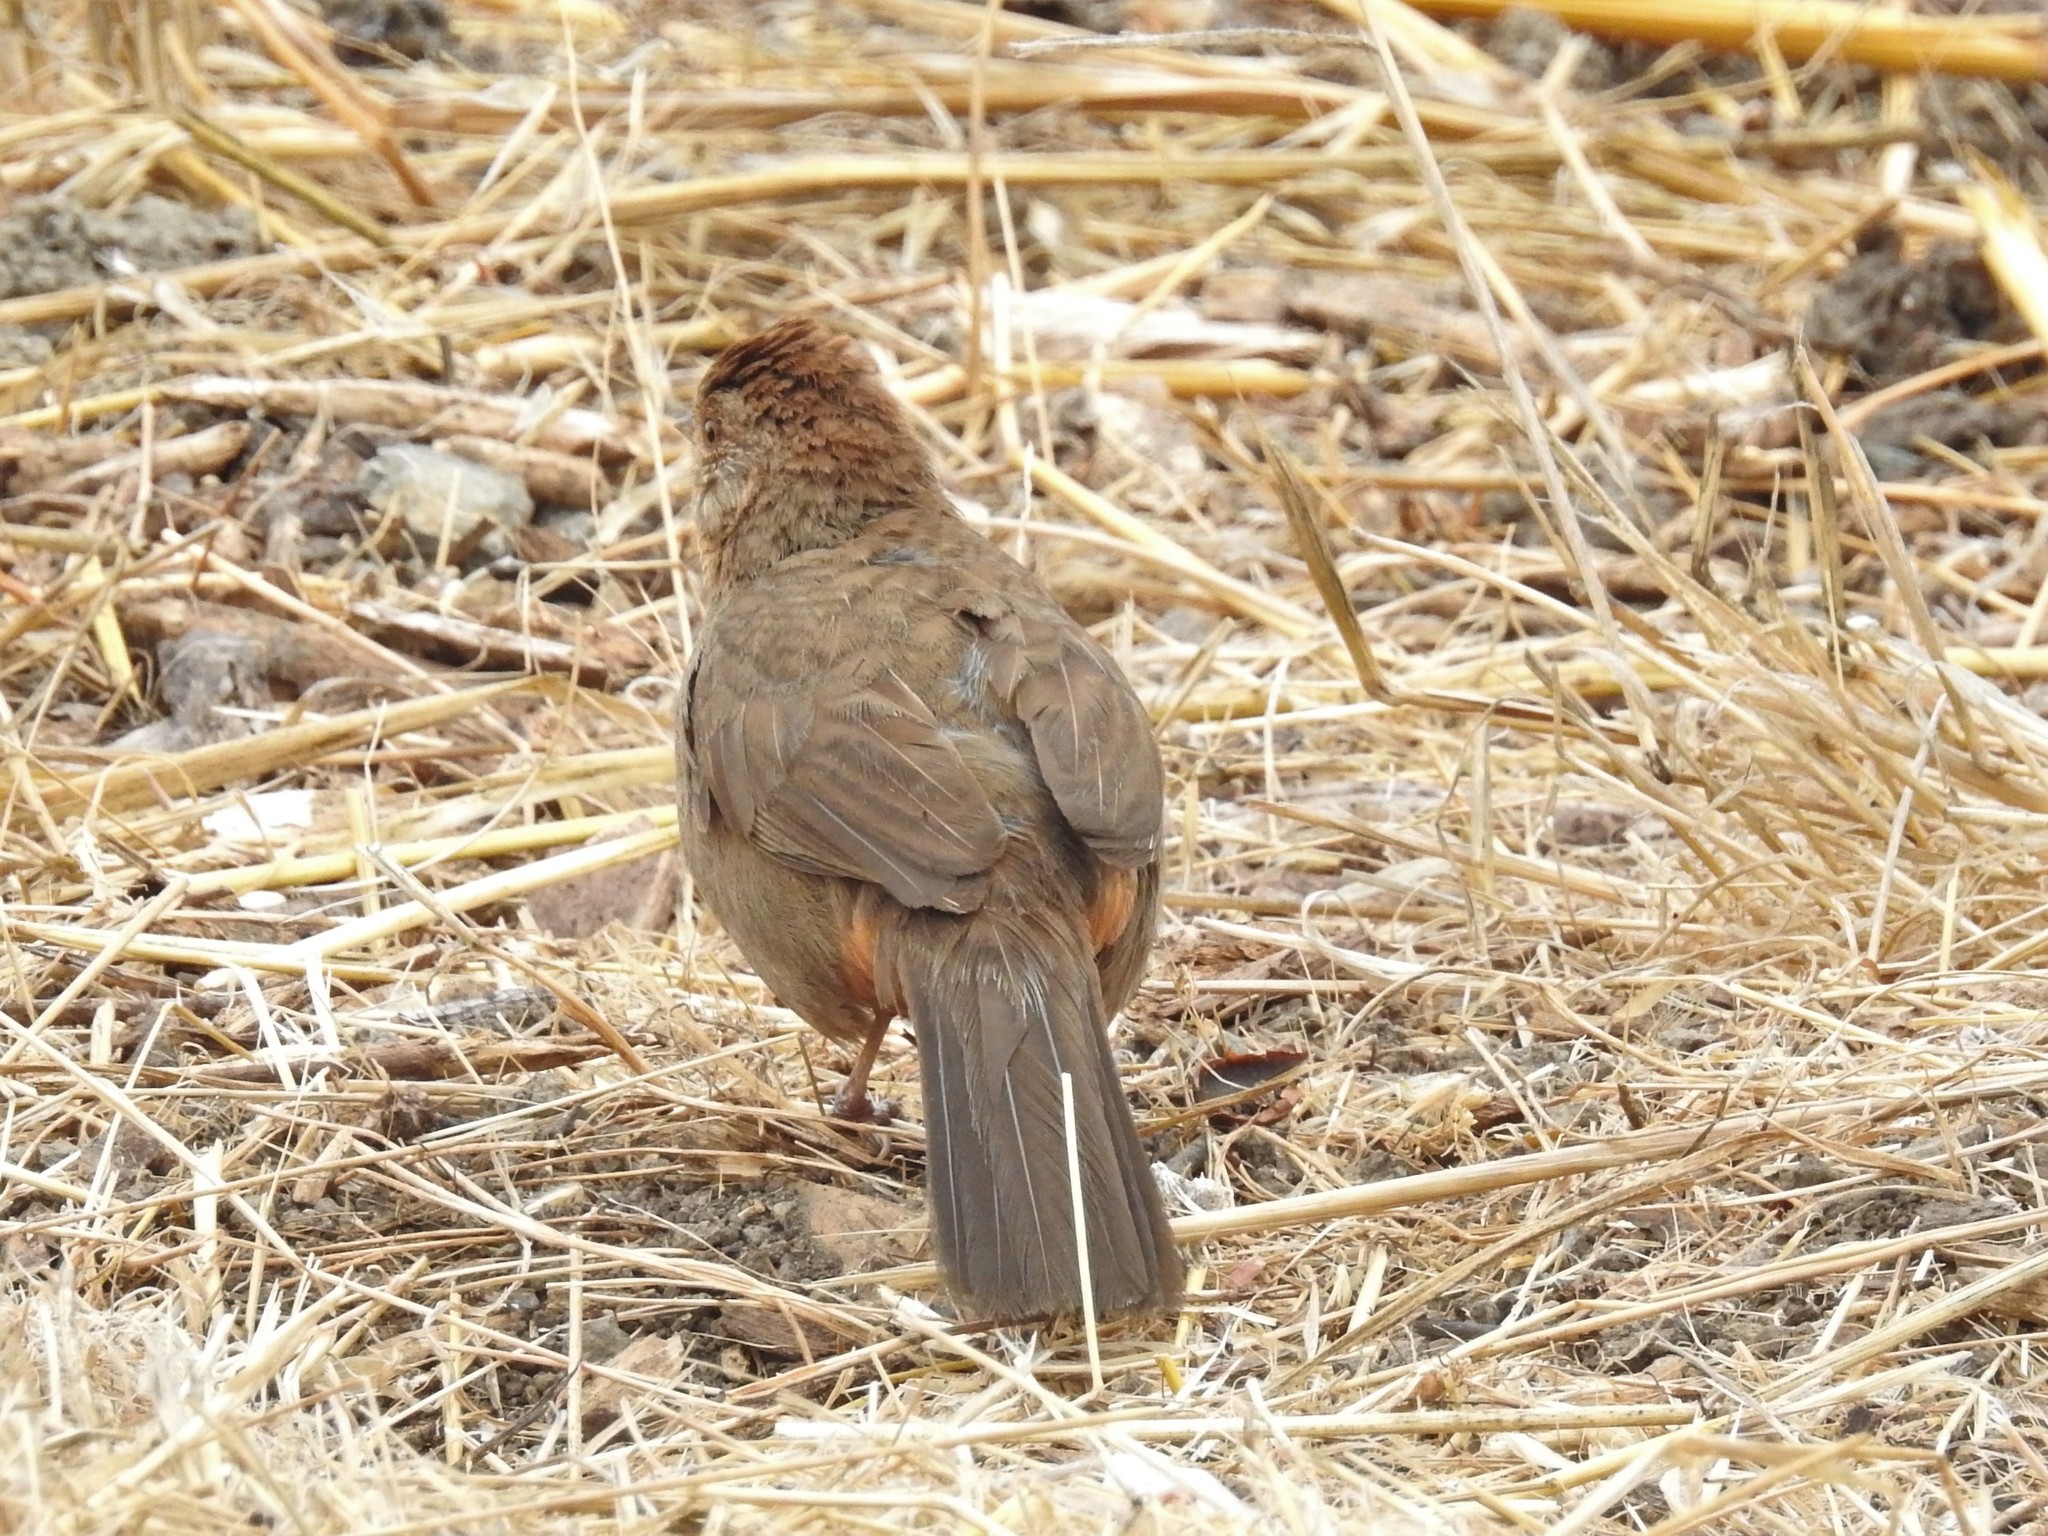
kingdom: Animalia
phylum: Chordata
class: Aves
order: Passeriformes
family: Passerellidae
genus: Melozone
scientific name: Melozone crissalis
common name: California towhee
